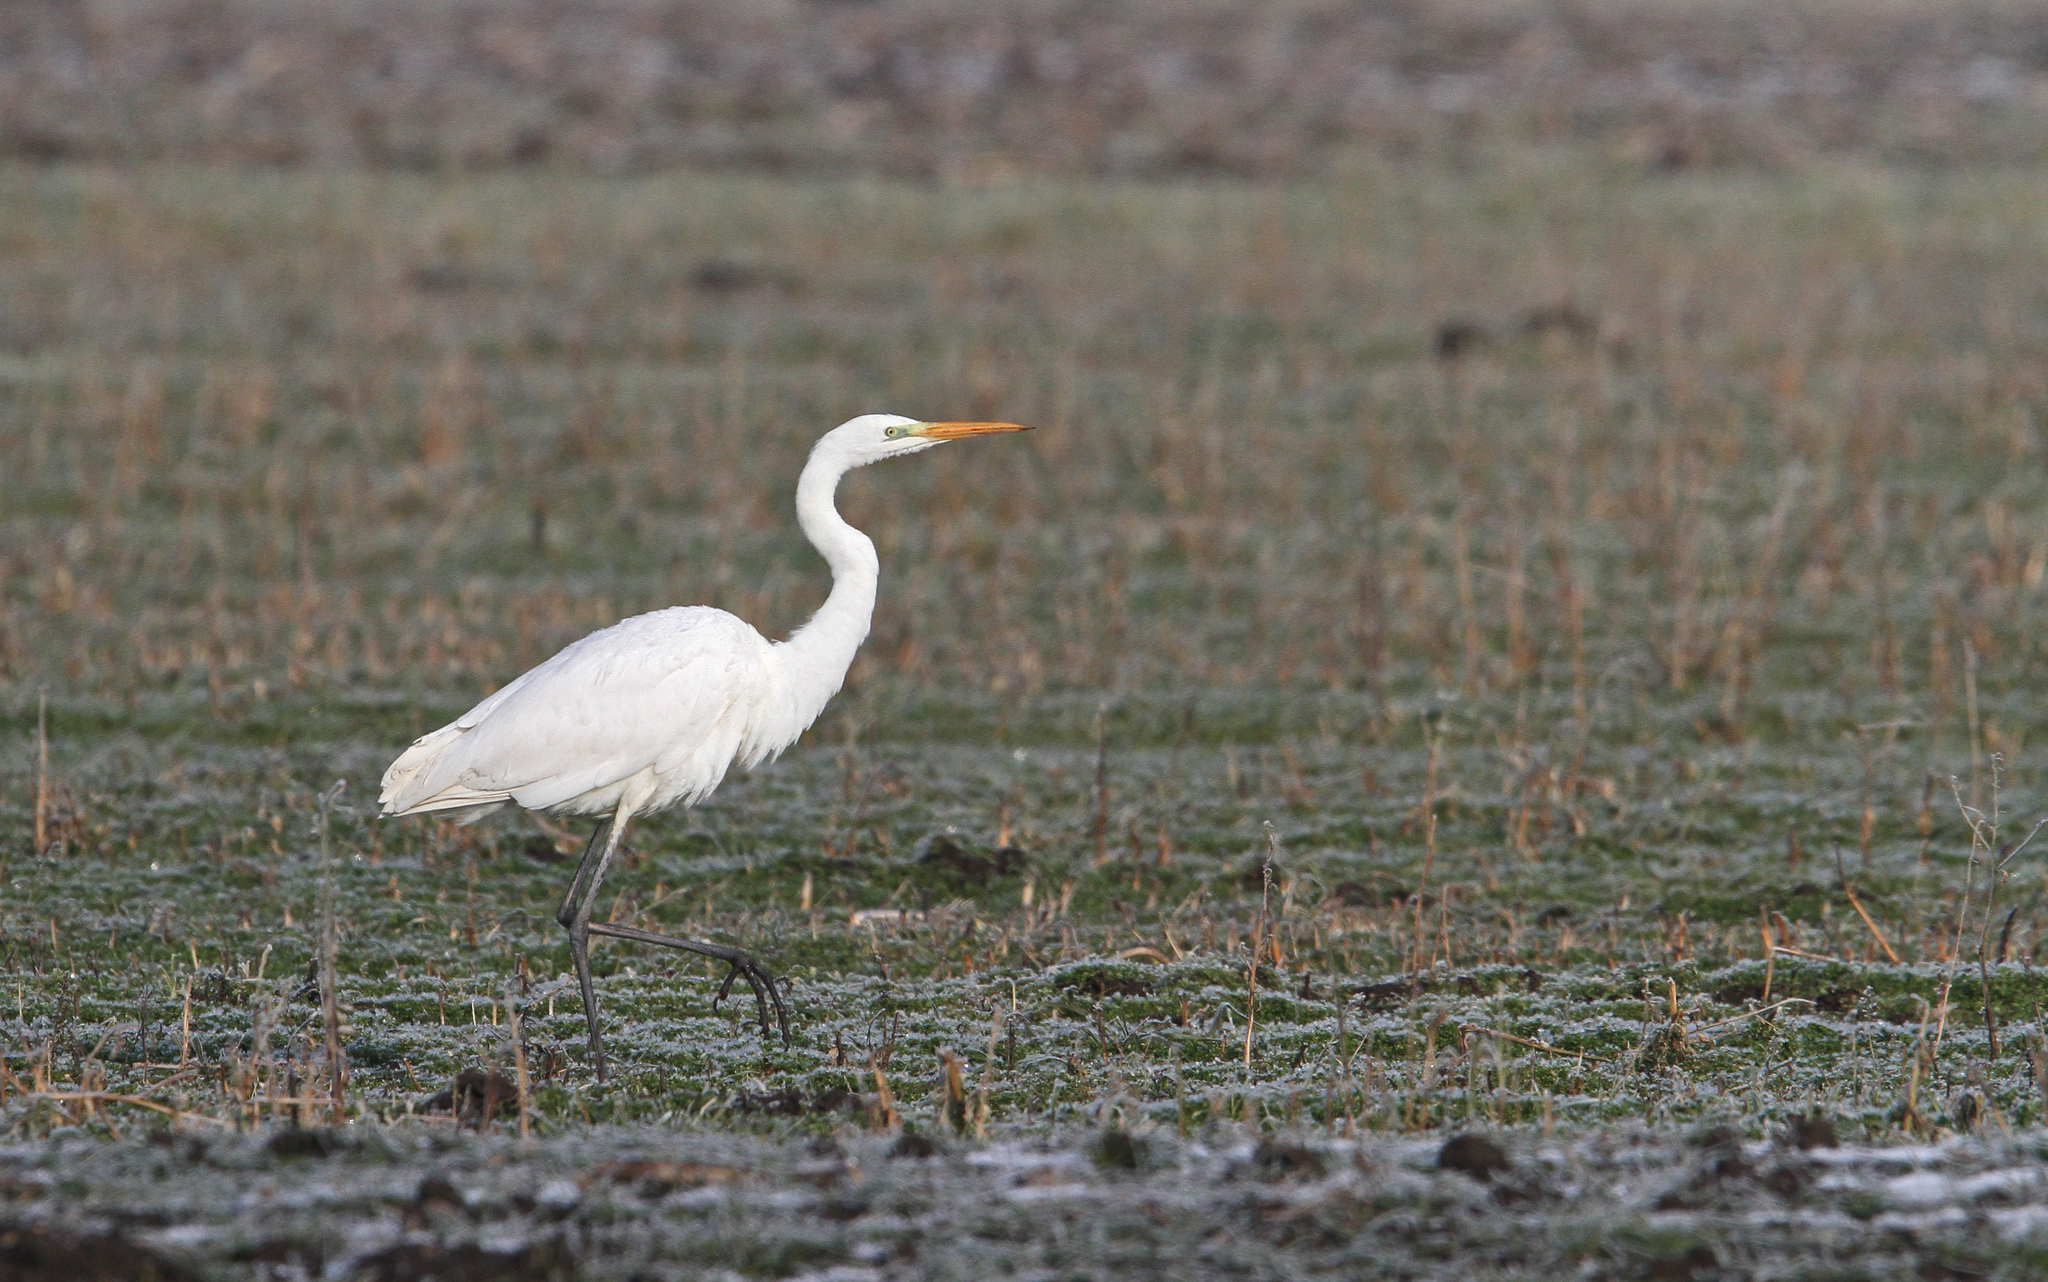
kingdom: Animalia
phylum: Chordata
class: Aves
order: Pelecaniformes
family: Ardeidae
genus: Ardea
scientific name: Ardea alba
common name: Great egret
